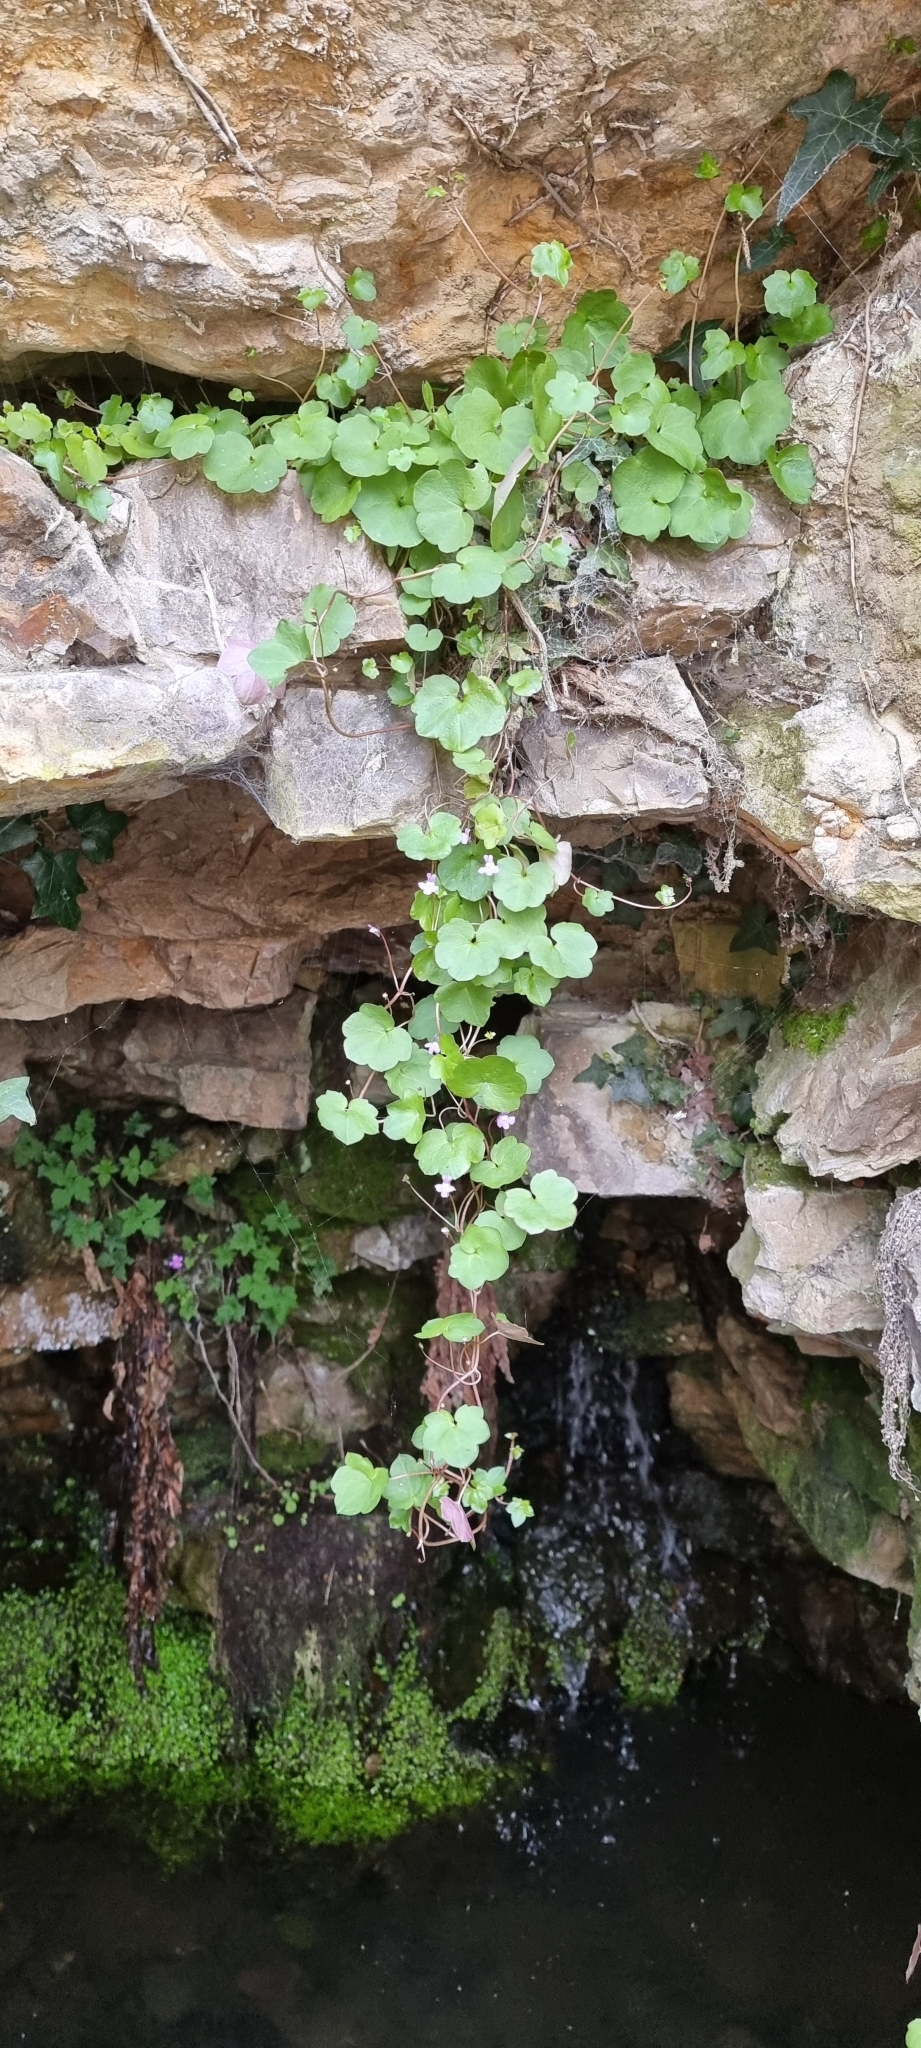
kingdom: Plantae
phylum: Tracheophyta
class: Magnoliopsida
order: Lamiales
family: Plantaginaceae
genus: Cymbalaria
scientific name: Cymbalaria muralis
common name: Ivy-leaved toadflax
